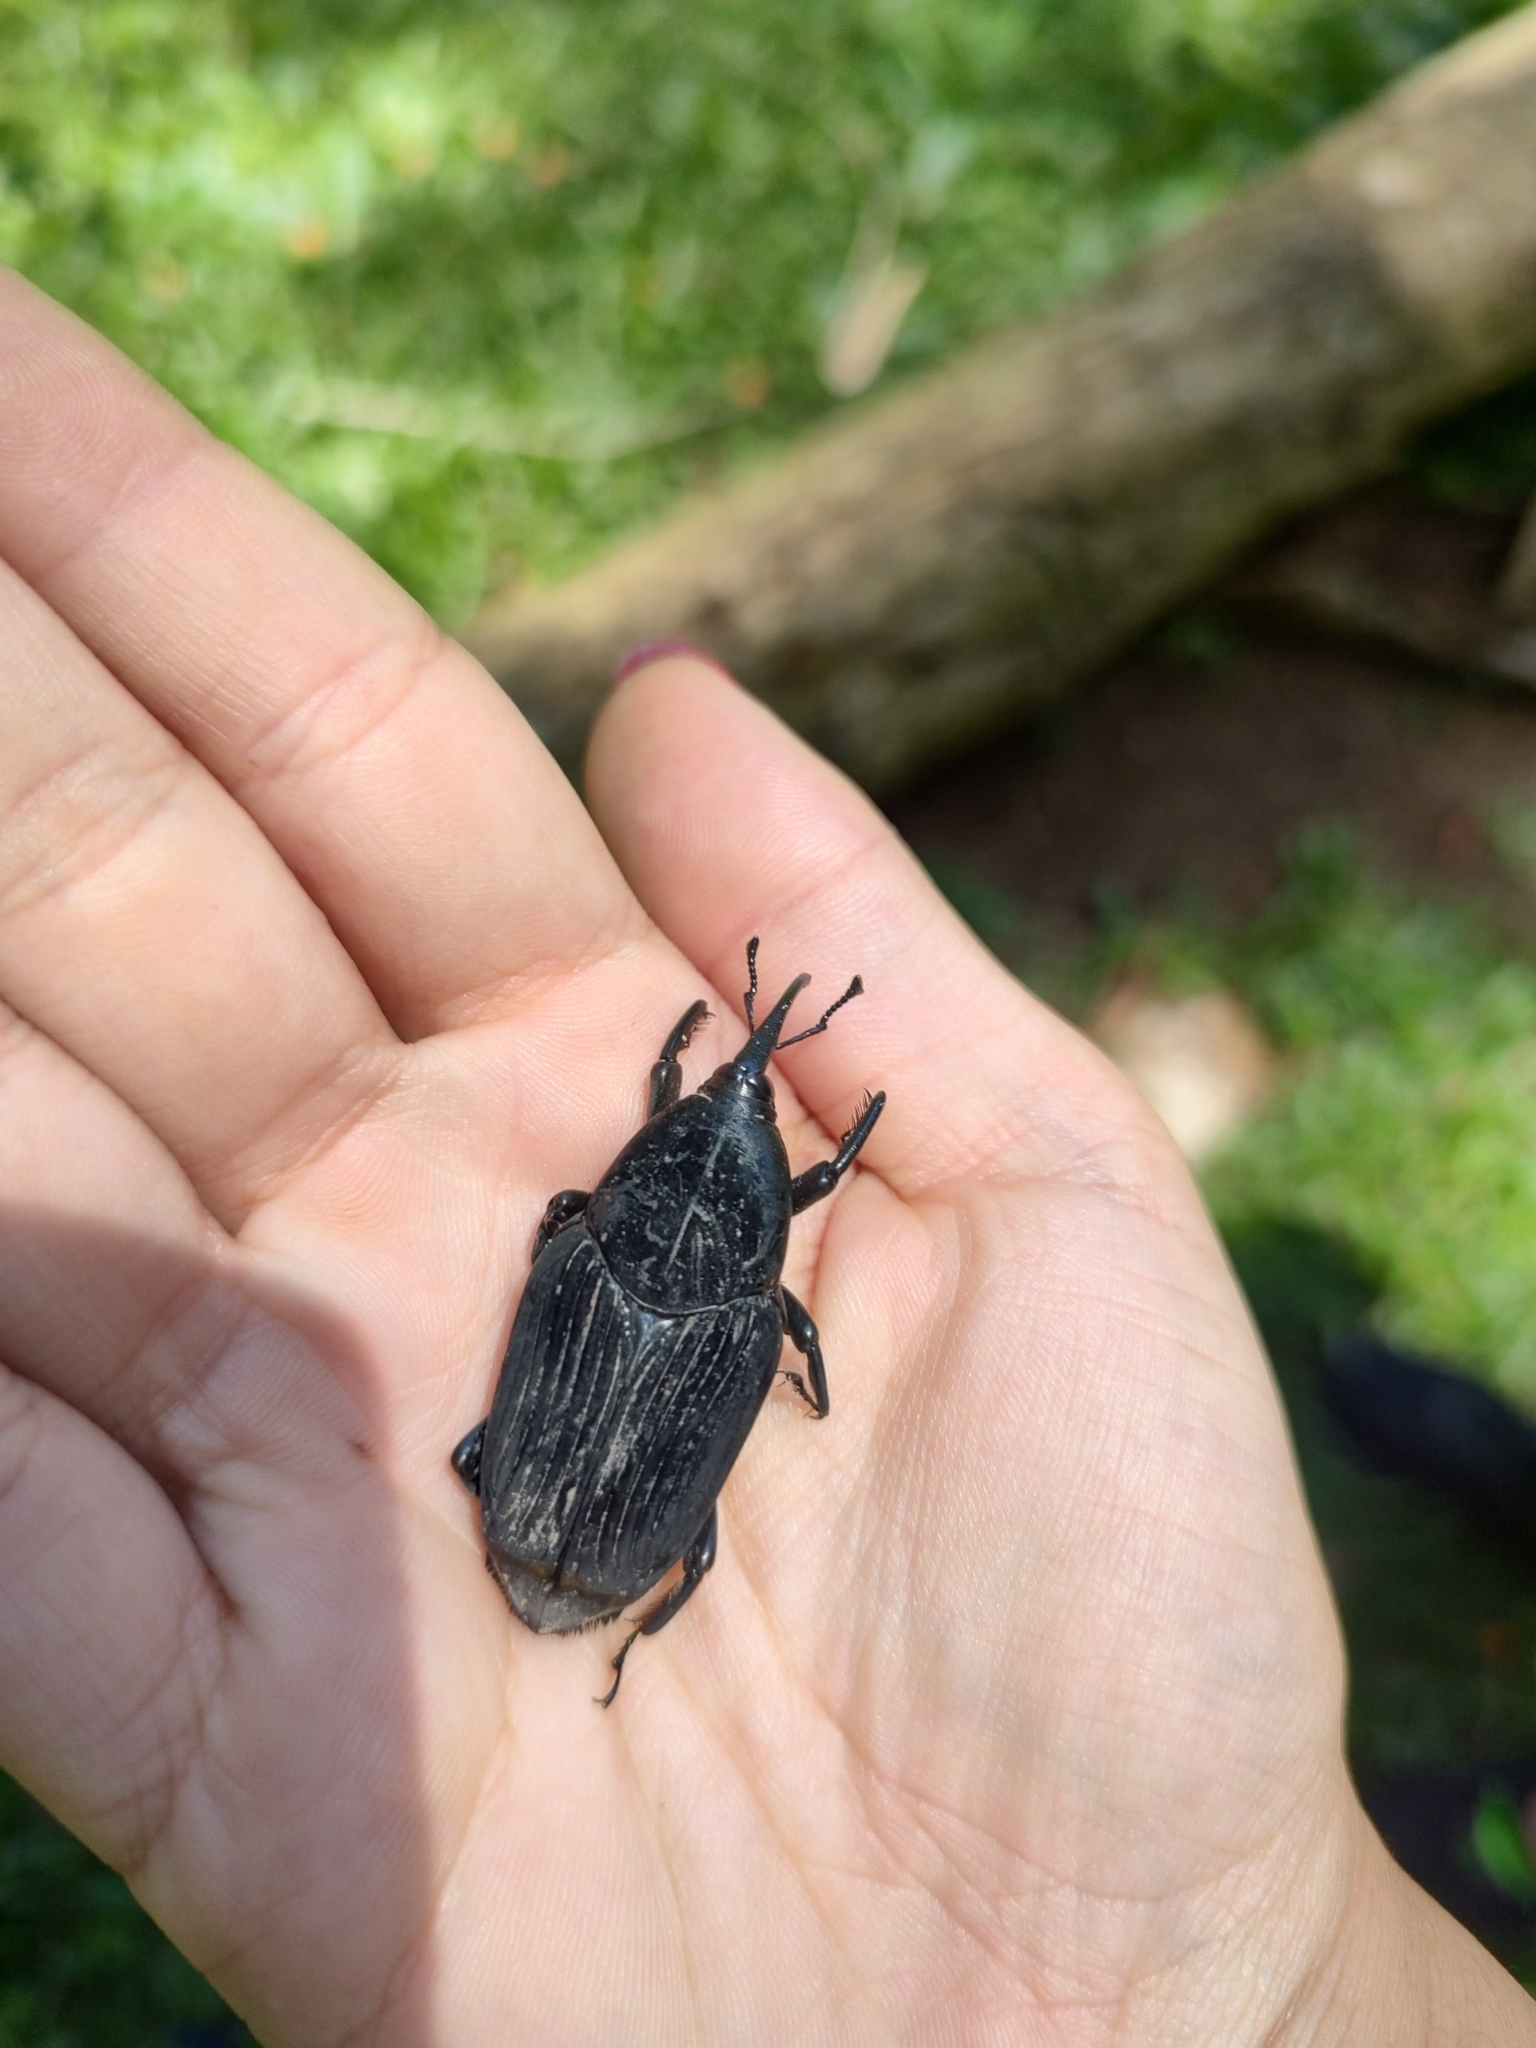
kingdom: Animalia
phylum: Arthropoda
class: Insecta
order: Coleoptera
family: Dryophthoridae
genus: Rhynchophorus
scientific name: Rhynchophorus palmarum
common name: Palm weevil
